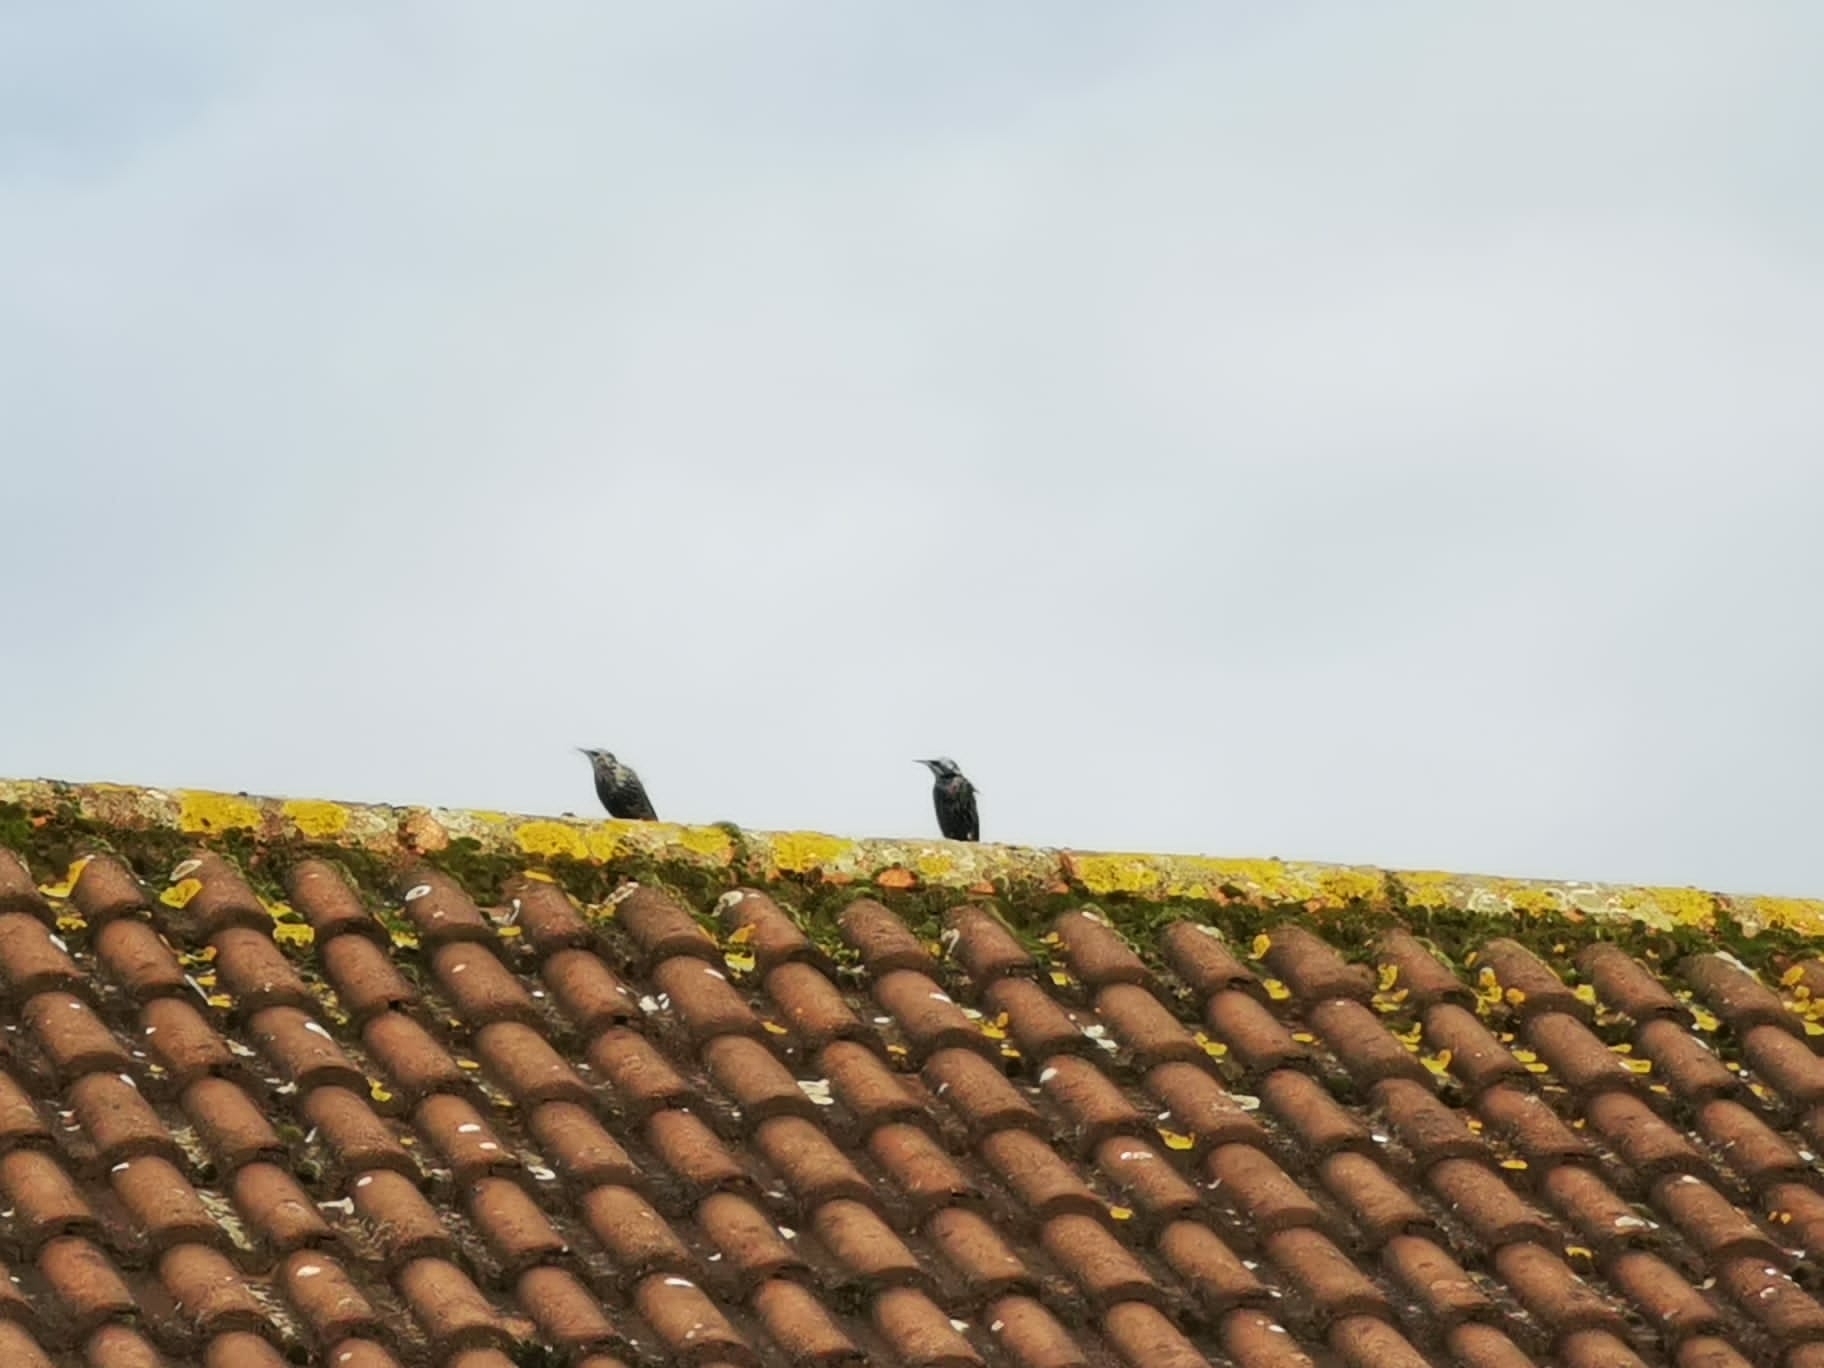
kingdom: Animalia
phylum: Chordata
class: Aves
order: Passeriformes
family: Sturnidae
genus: Sturnus
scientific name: Sturnus vulgaris
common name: Common starling
